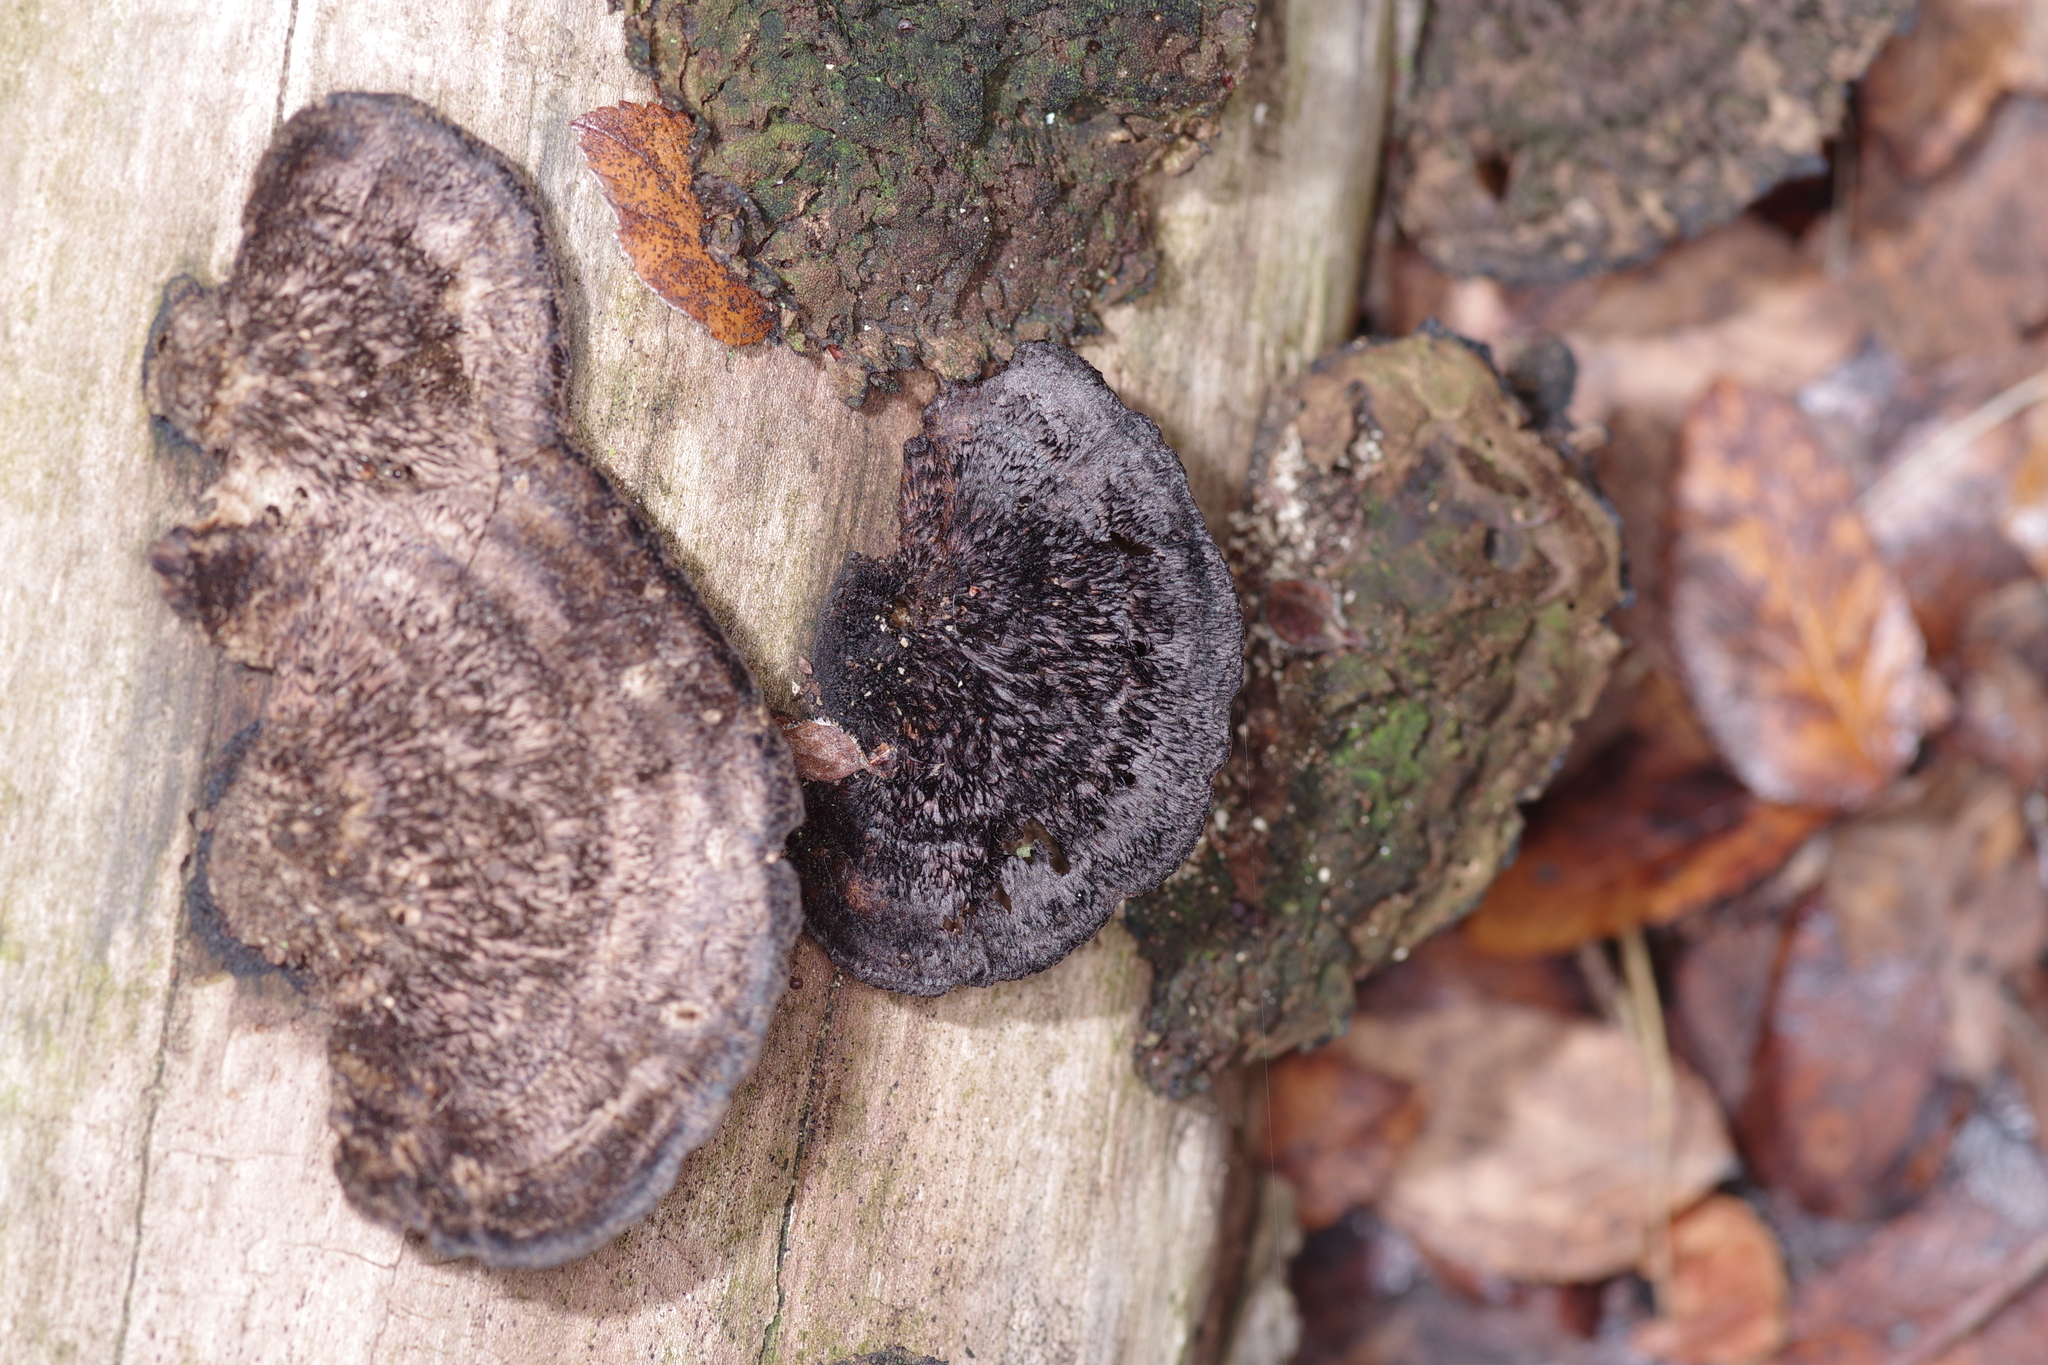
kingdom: Fungi
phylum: Basidiomycota
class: Agaricomycetes
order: Polyporales
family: Cerrenaceae
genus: Cerrena
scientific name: Cerrena hydnoides
